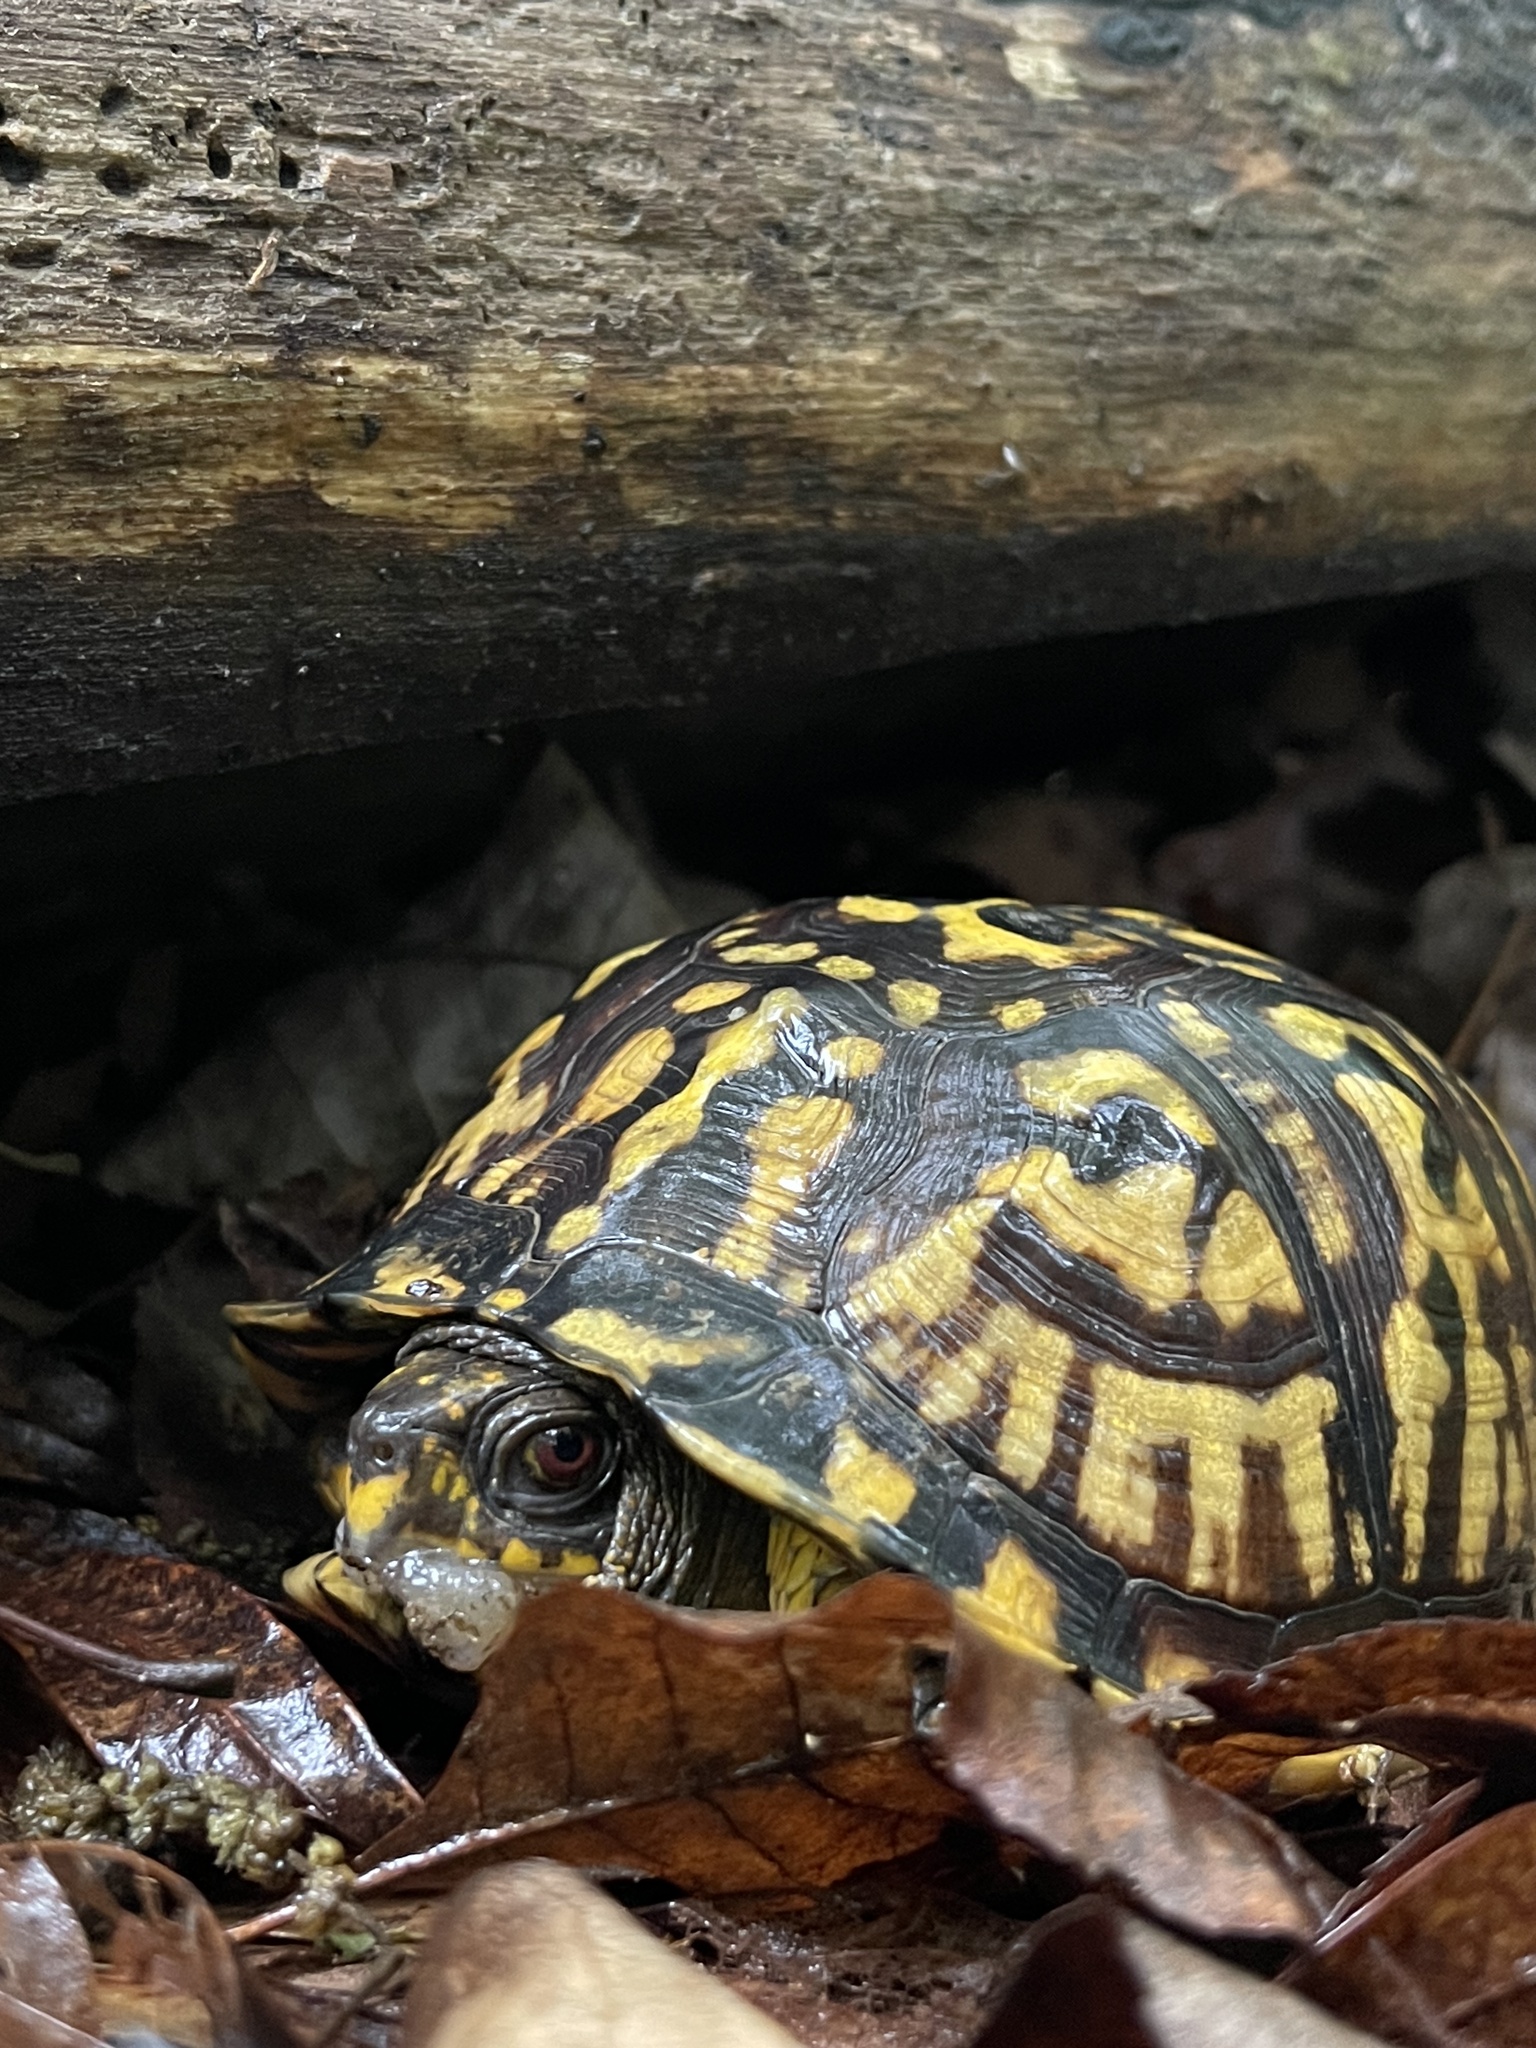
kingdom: Animalia
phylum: Chordata
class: Testudines
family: Emydidae
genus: Terrapene
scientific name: Terrapene carolina
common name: Common box turtle
